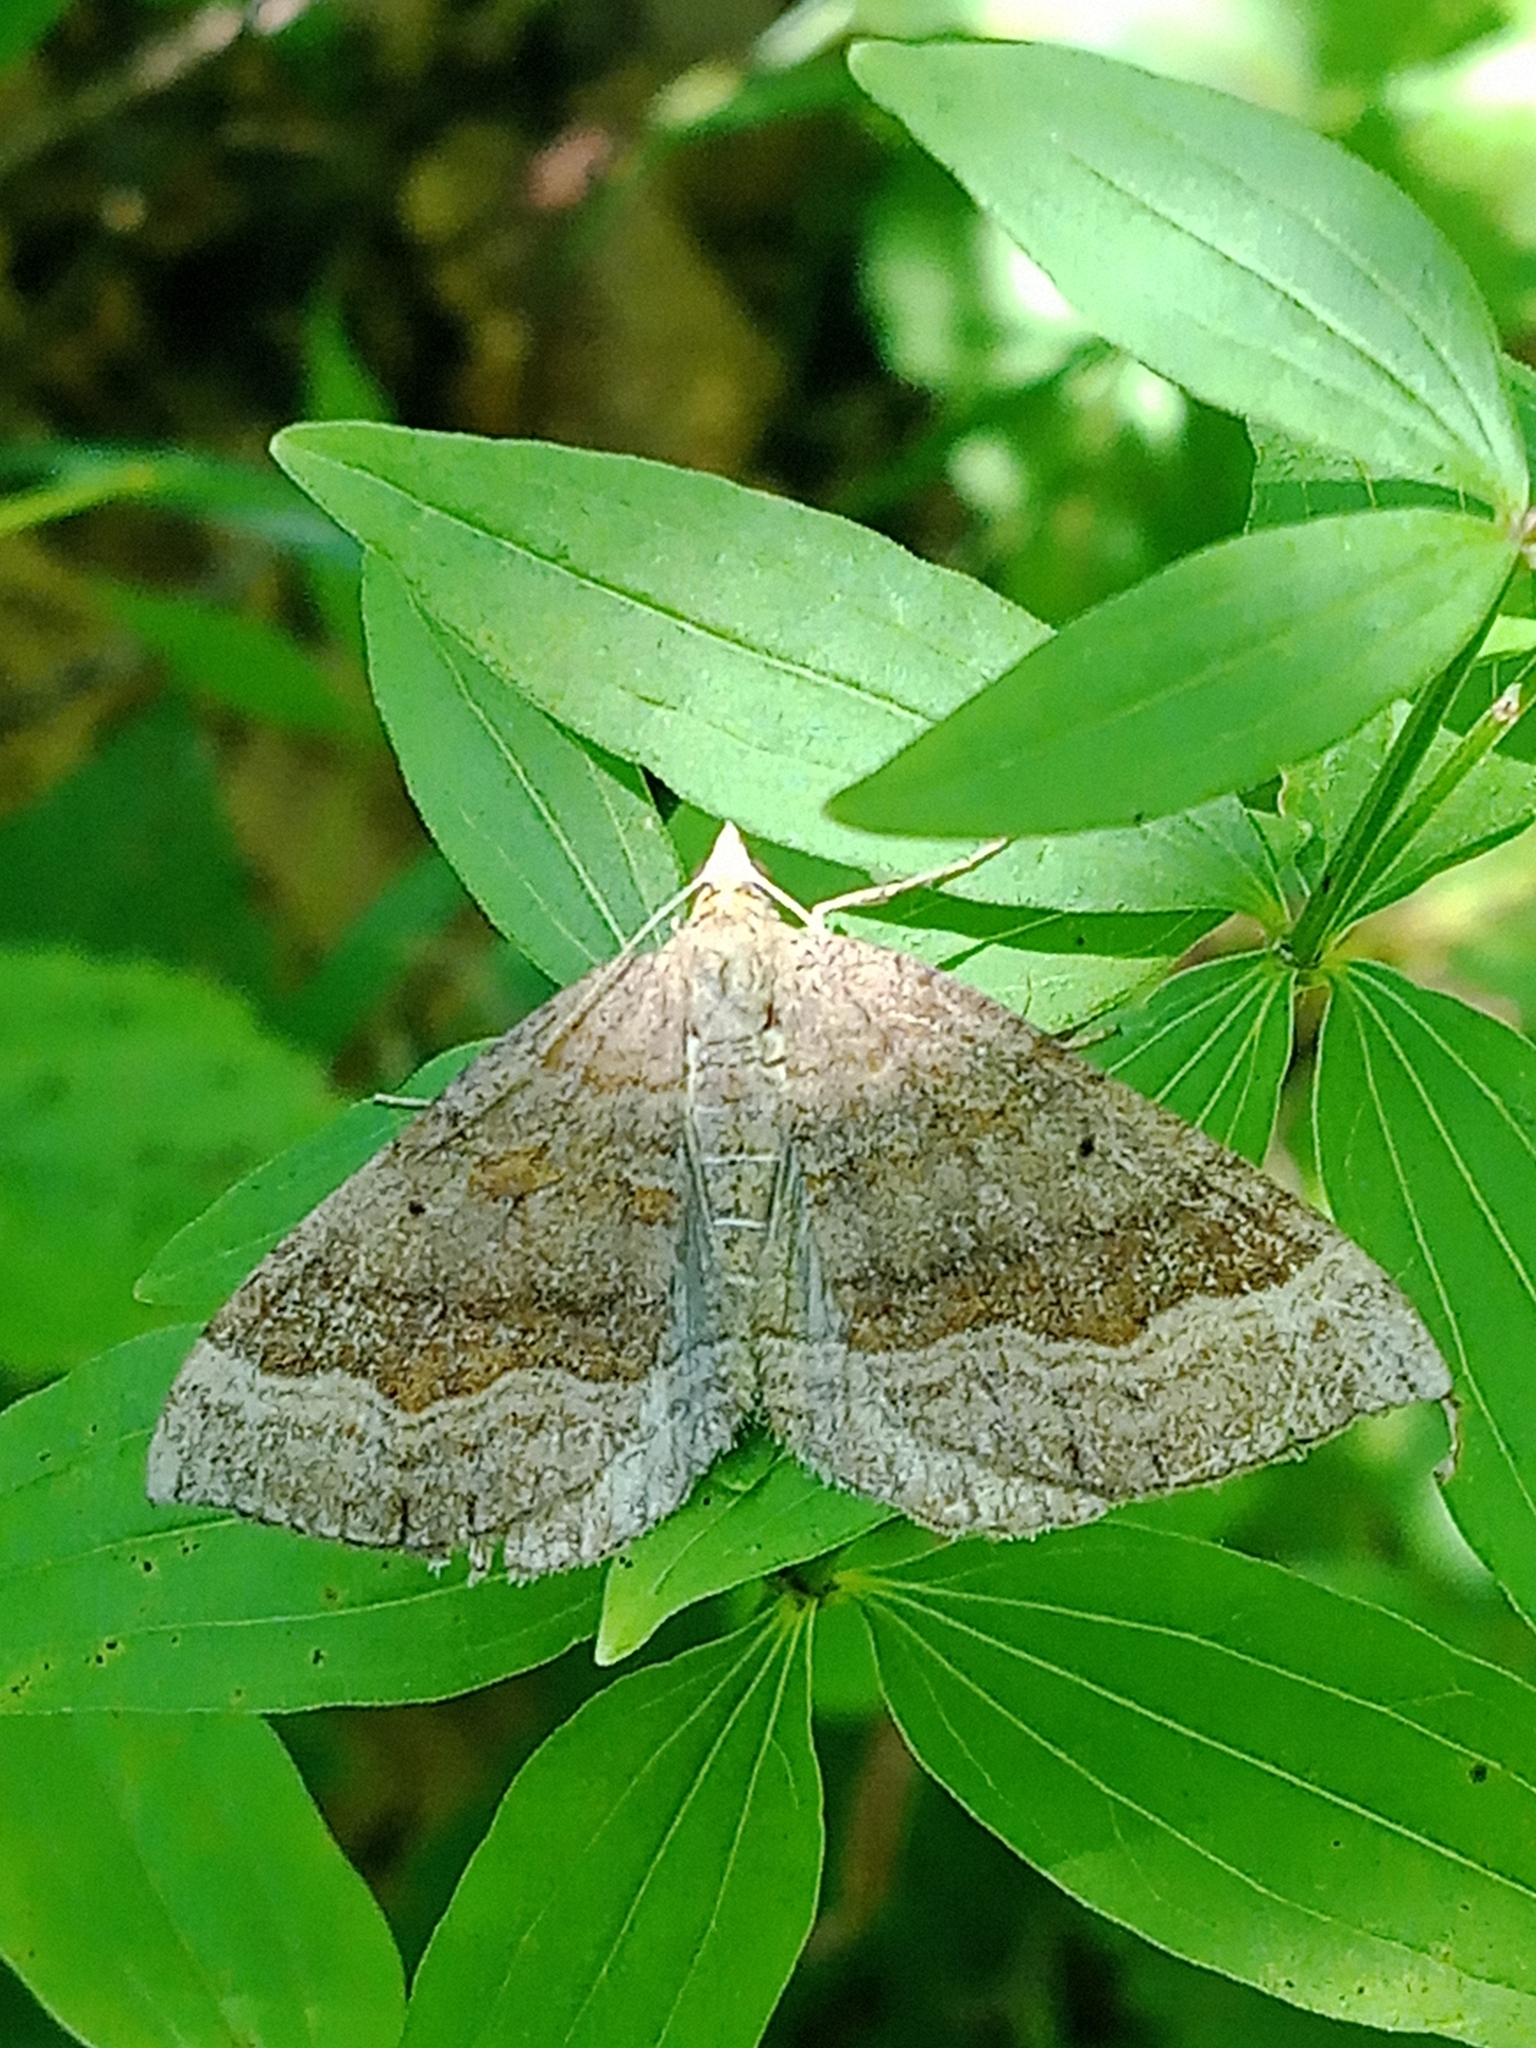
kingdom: Animalia
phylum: Arthropoda
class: Insecta
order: Lepidoptera
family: Geometridae
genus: Scotopteryx
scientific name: Scotopteryx chenopodiata
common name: Shaded broad-bar
